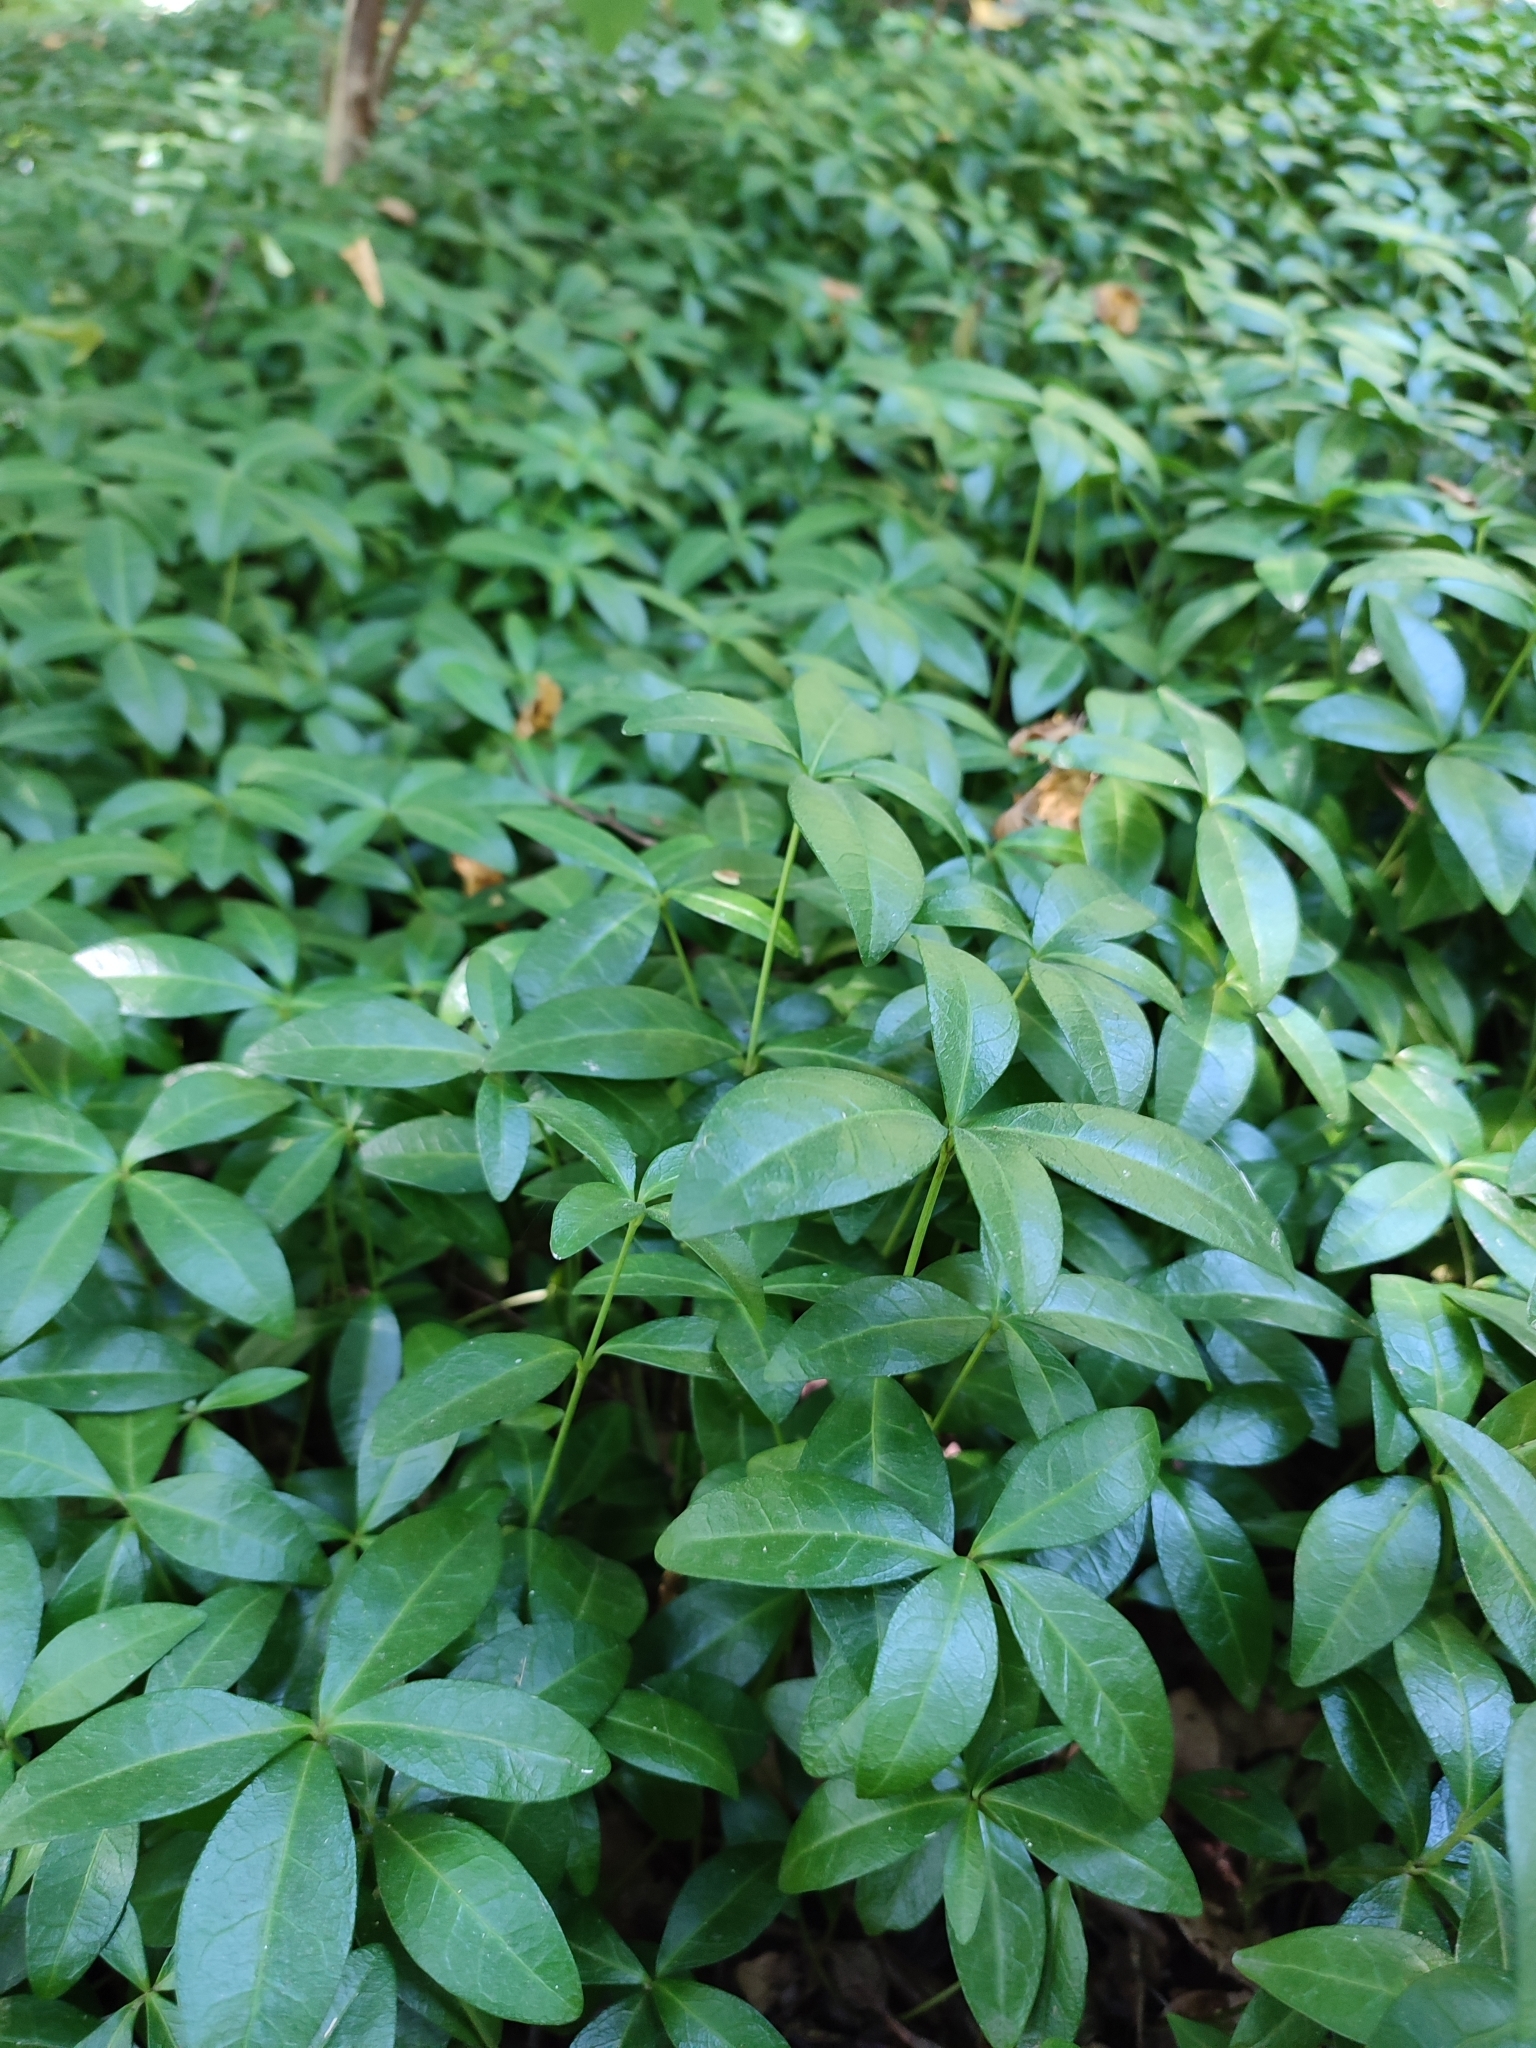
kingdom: Plantae
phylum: Tracheophyta
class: Magnoliopsida
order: Gentianales
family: Apocynaceae
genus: Vinca
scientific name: Vinca minor
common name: Lesser periwinkle
